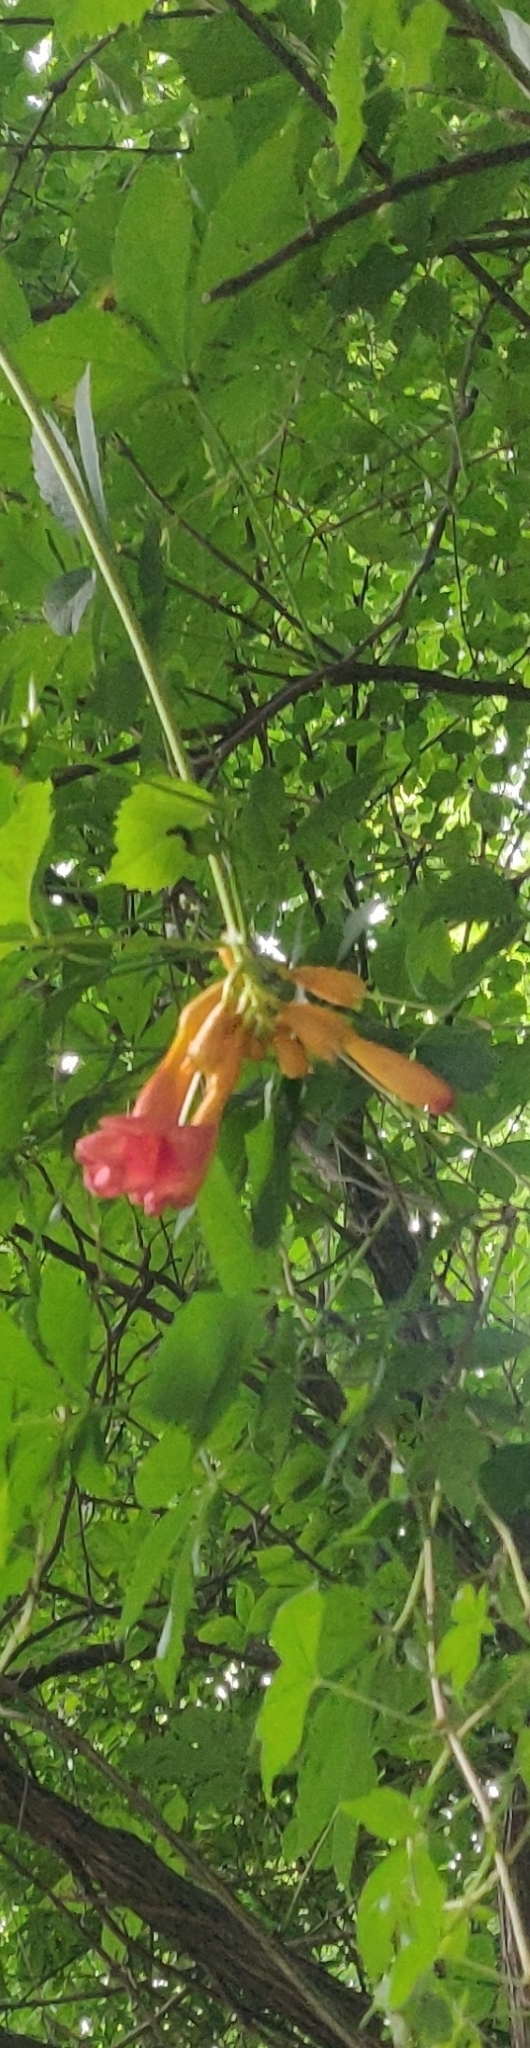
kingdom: Plantae
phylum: Tracheophyta
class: Magnoliopsida
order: Lamiales
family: Bignoniaceae
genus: Campsis
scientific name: Campsis radicans
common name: Trumpet-creeper
